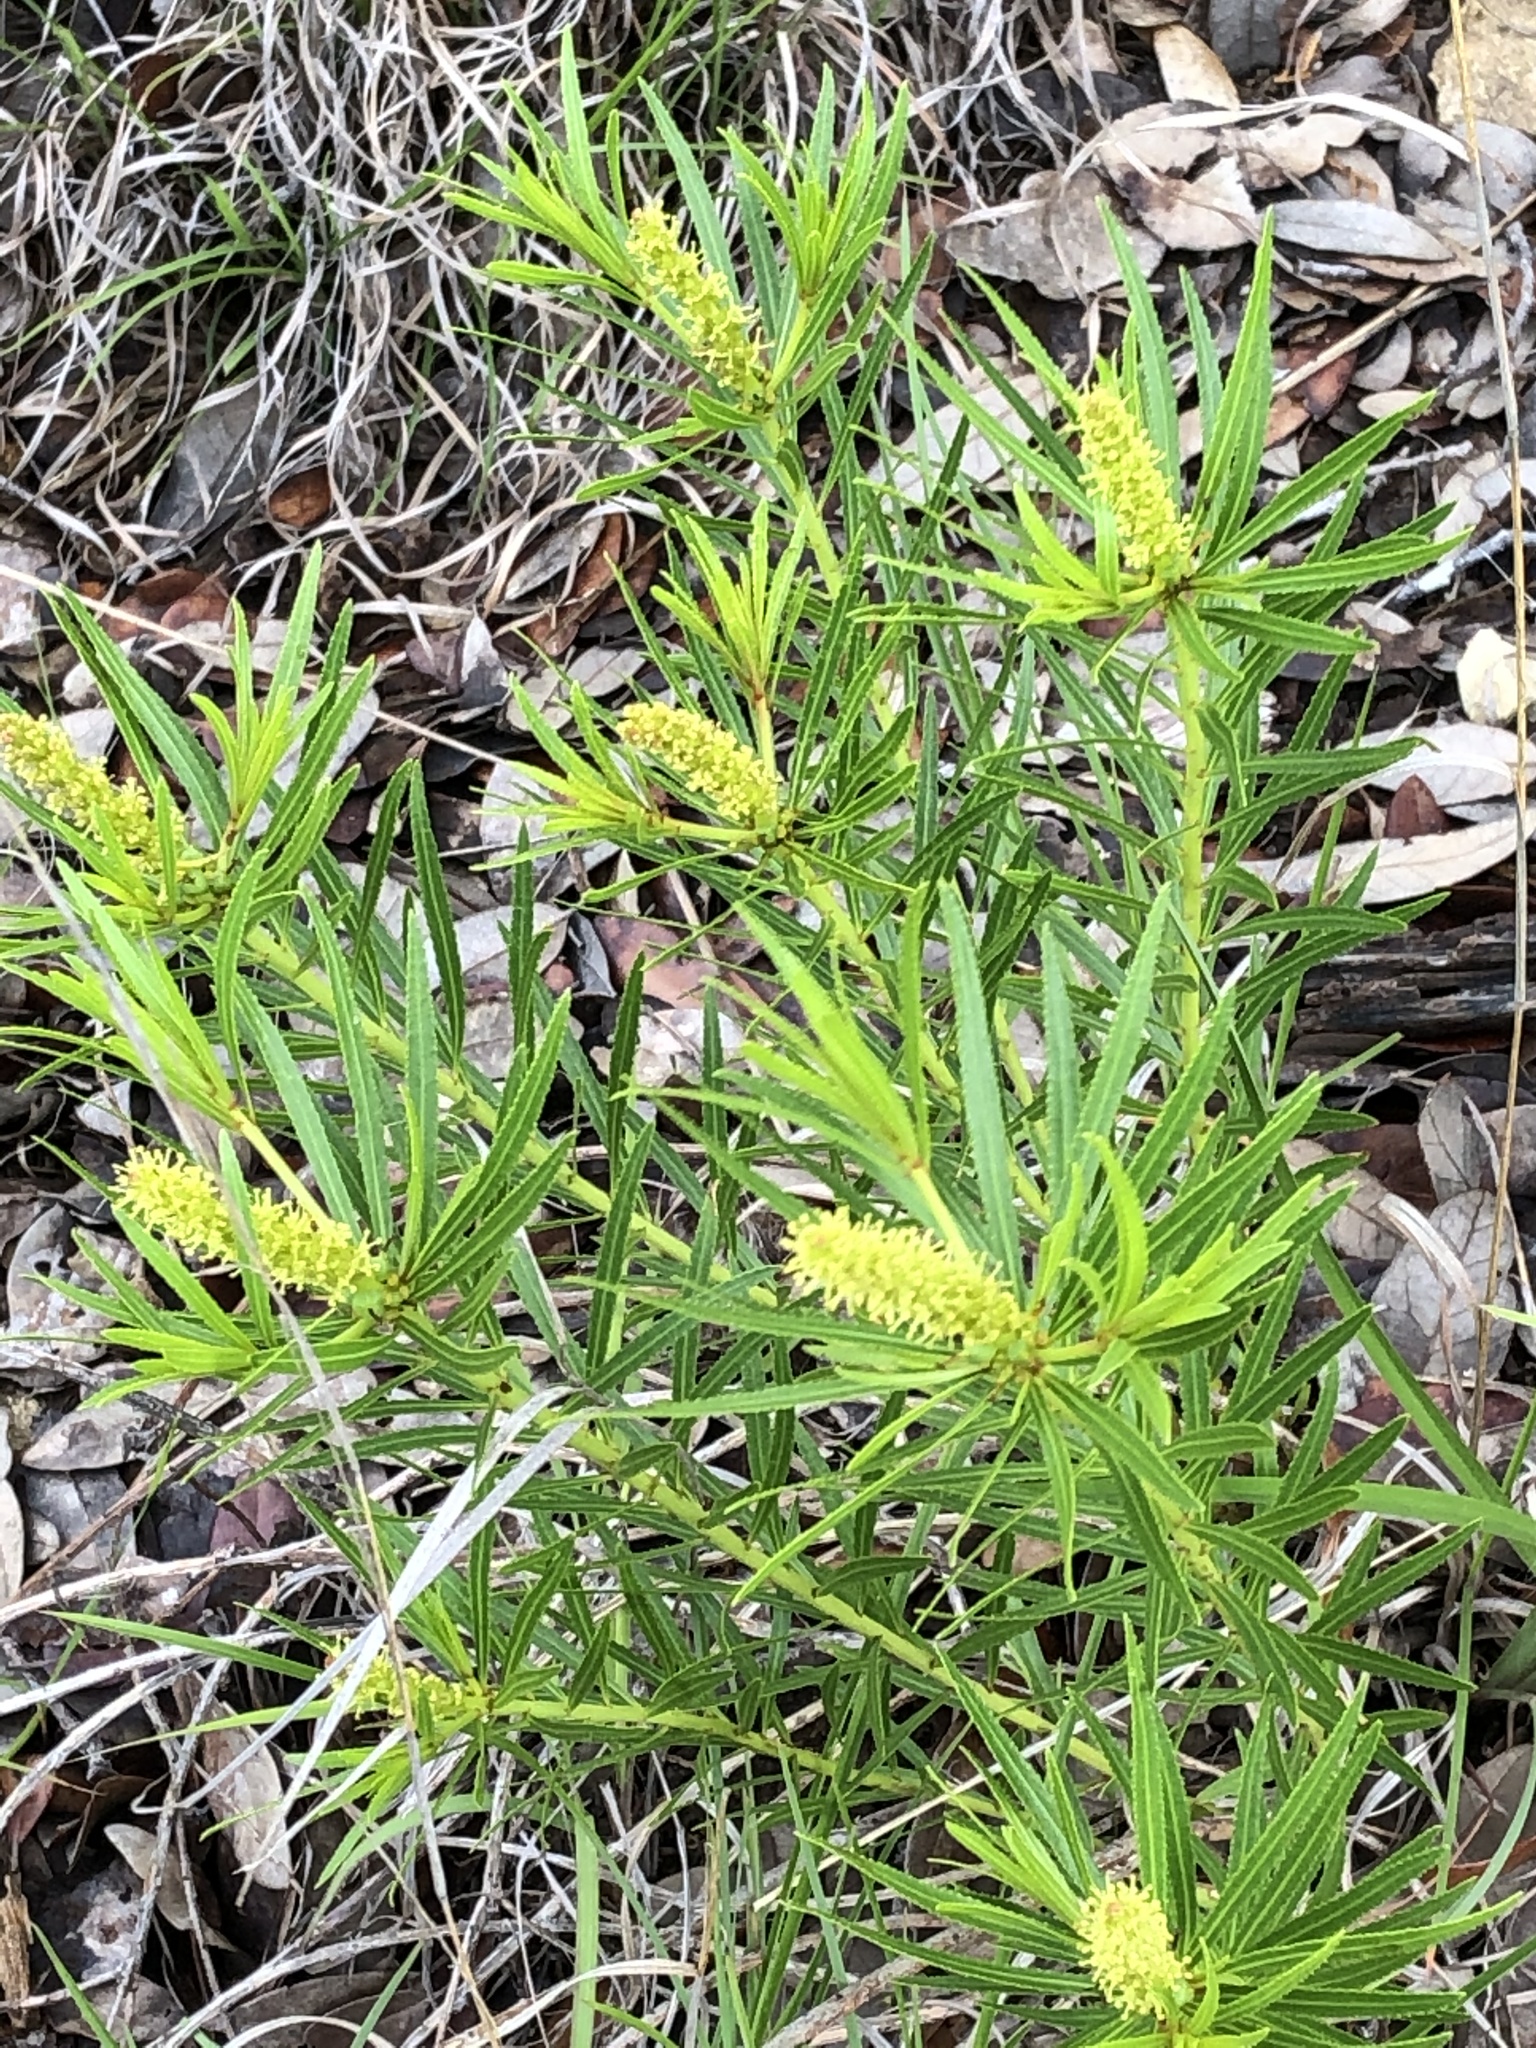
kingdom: Plantae
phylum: Tracheophyta
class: Magnoliopsida
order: Malpighiales
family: Euphorbiaceae
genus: Stillingia
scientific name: Stillingia texana
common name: Texas stillingia
